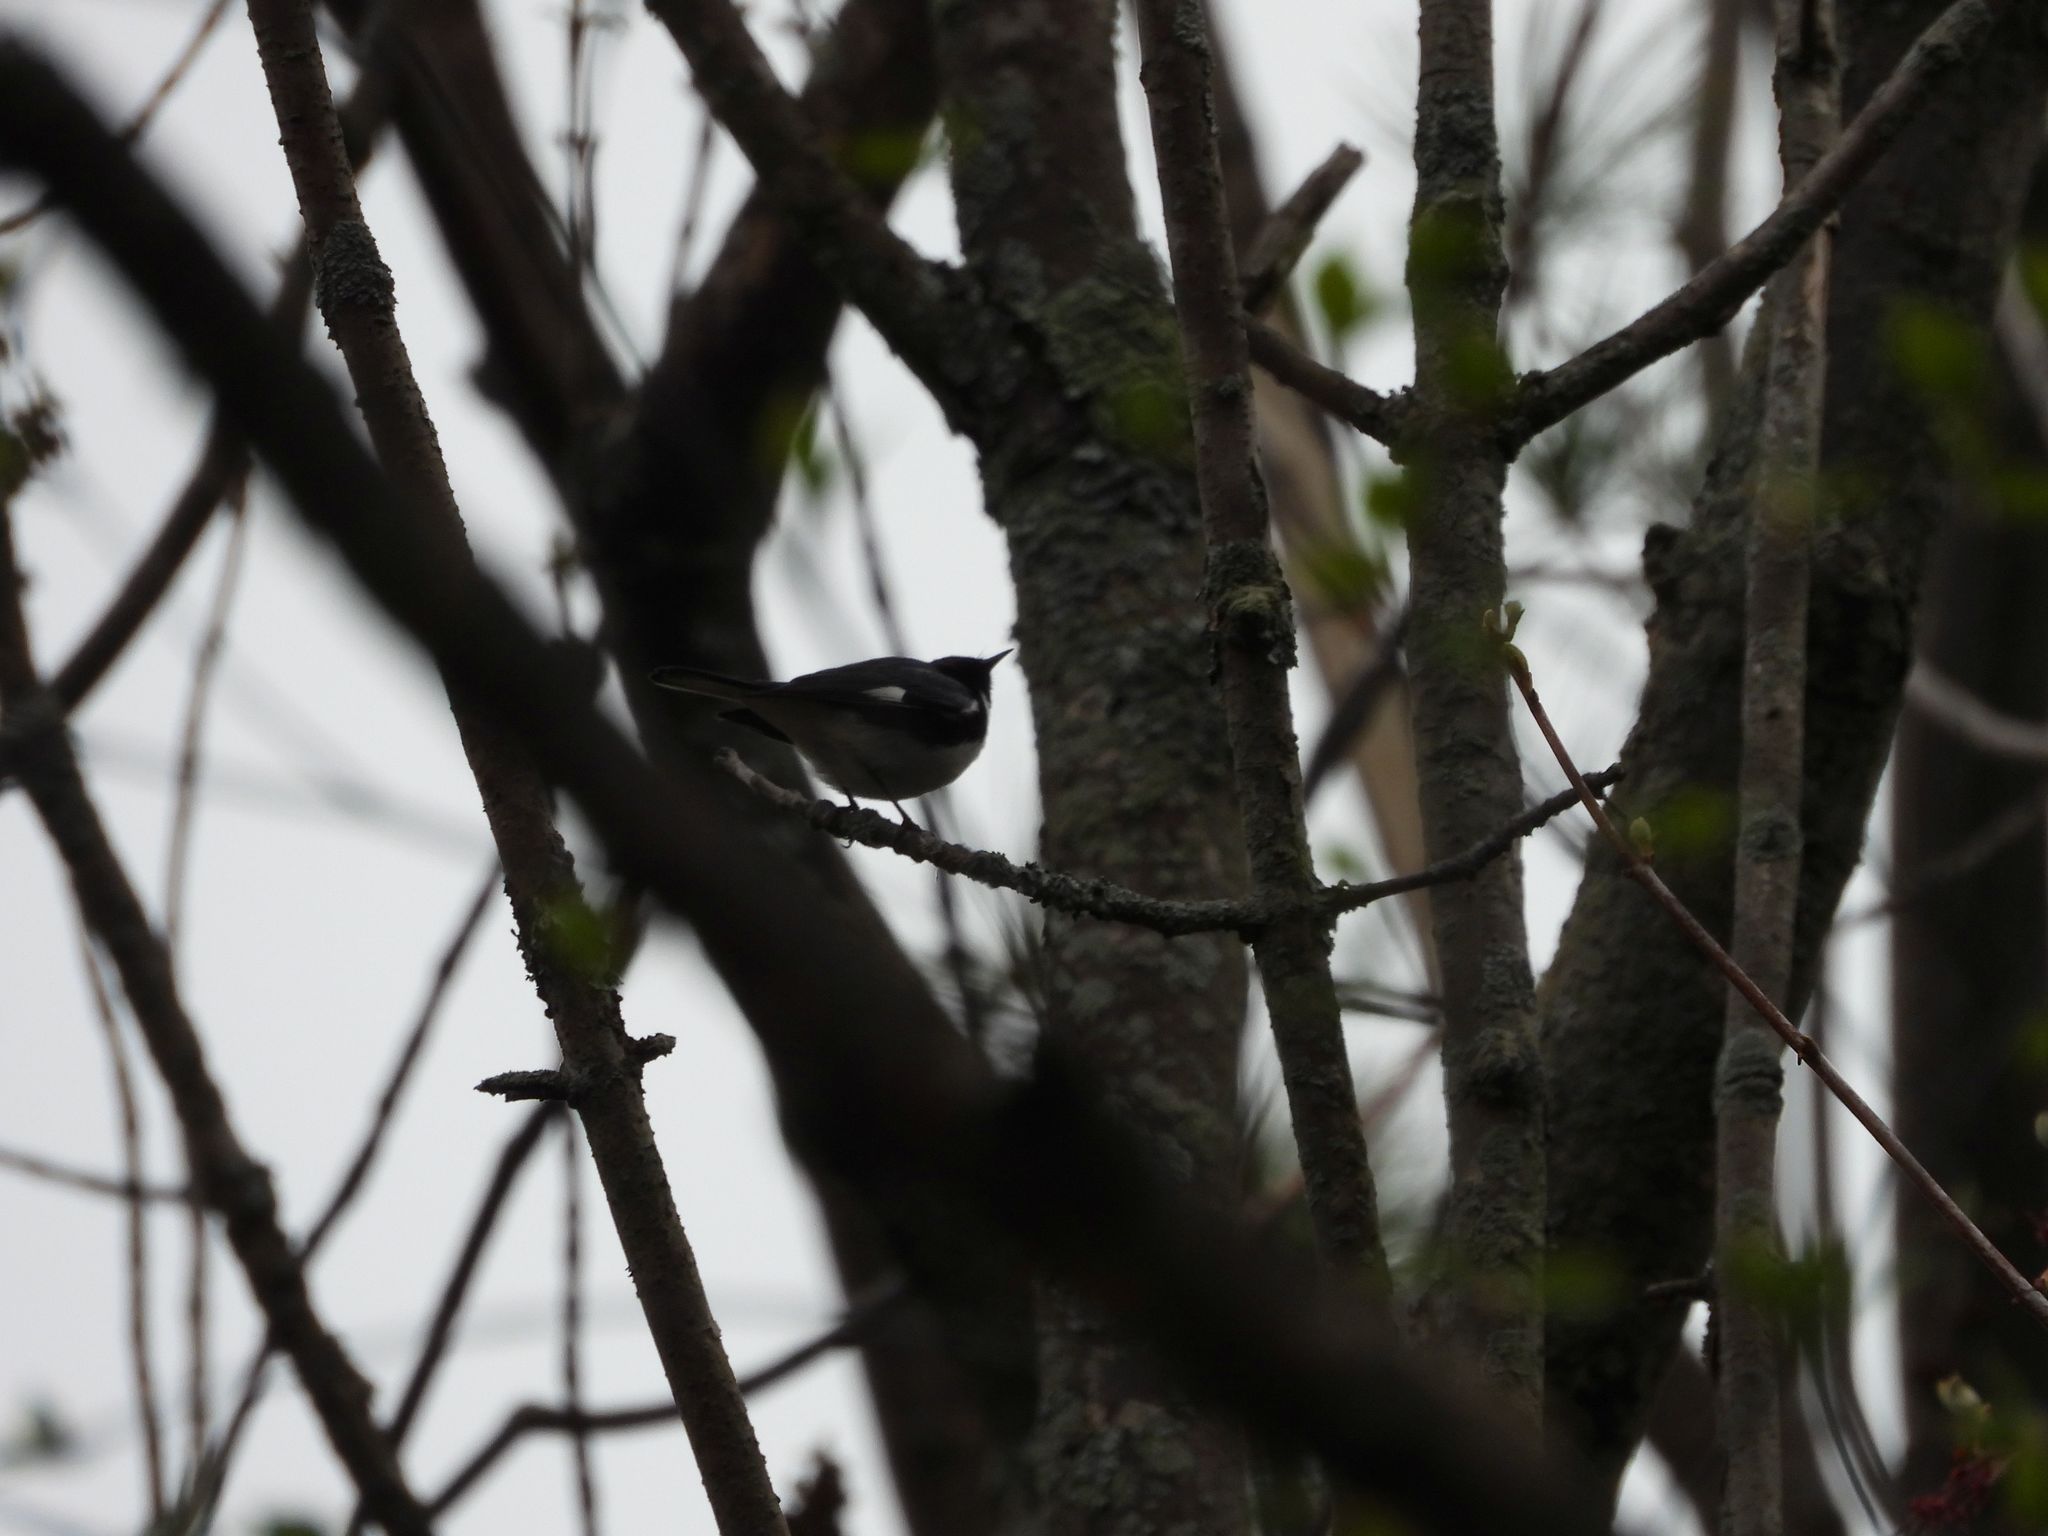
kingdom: Animalia
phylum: Chordata
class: Aves
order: Passeriformes
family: Parulidae
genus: Setophaga
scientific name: Setophaga caerulescens
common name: Black-throated blue warbler
